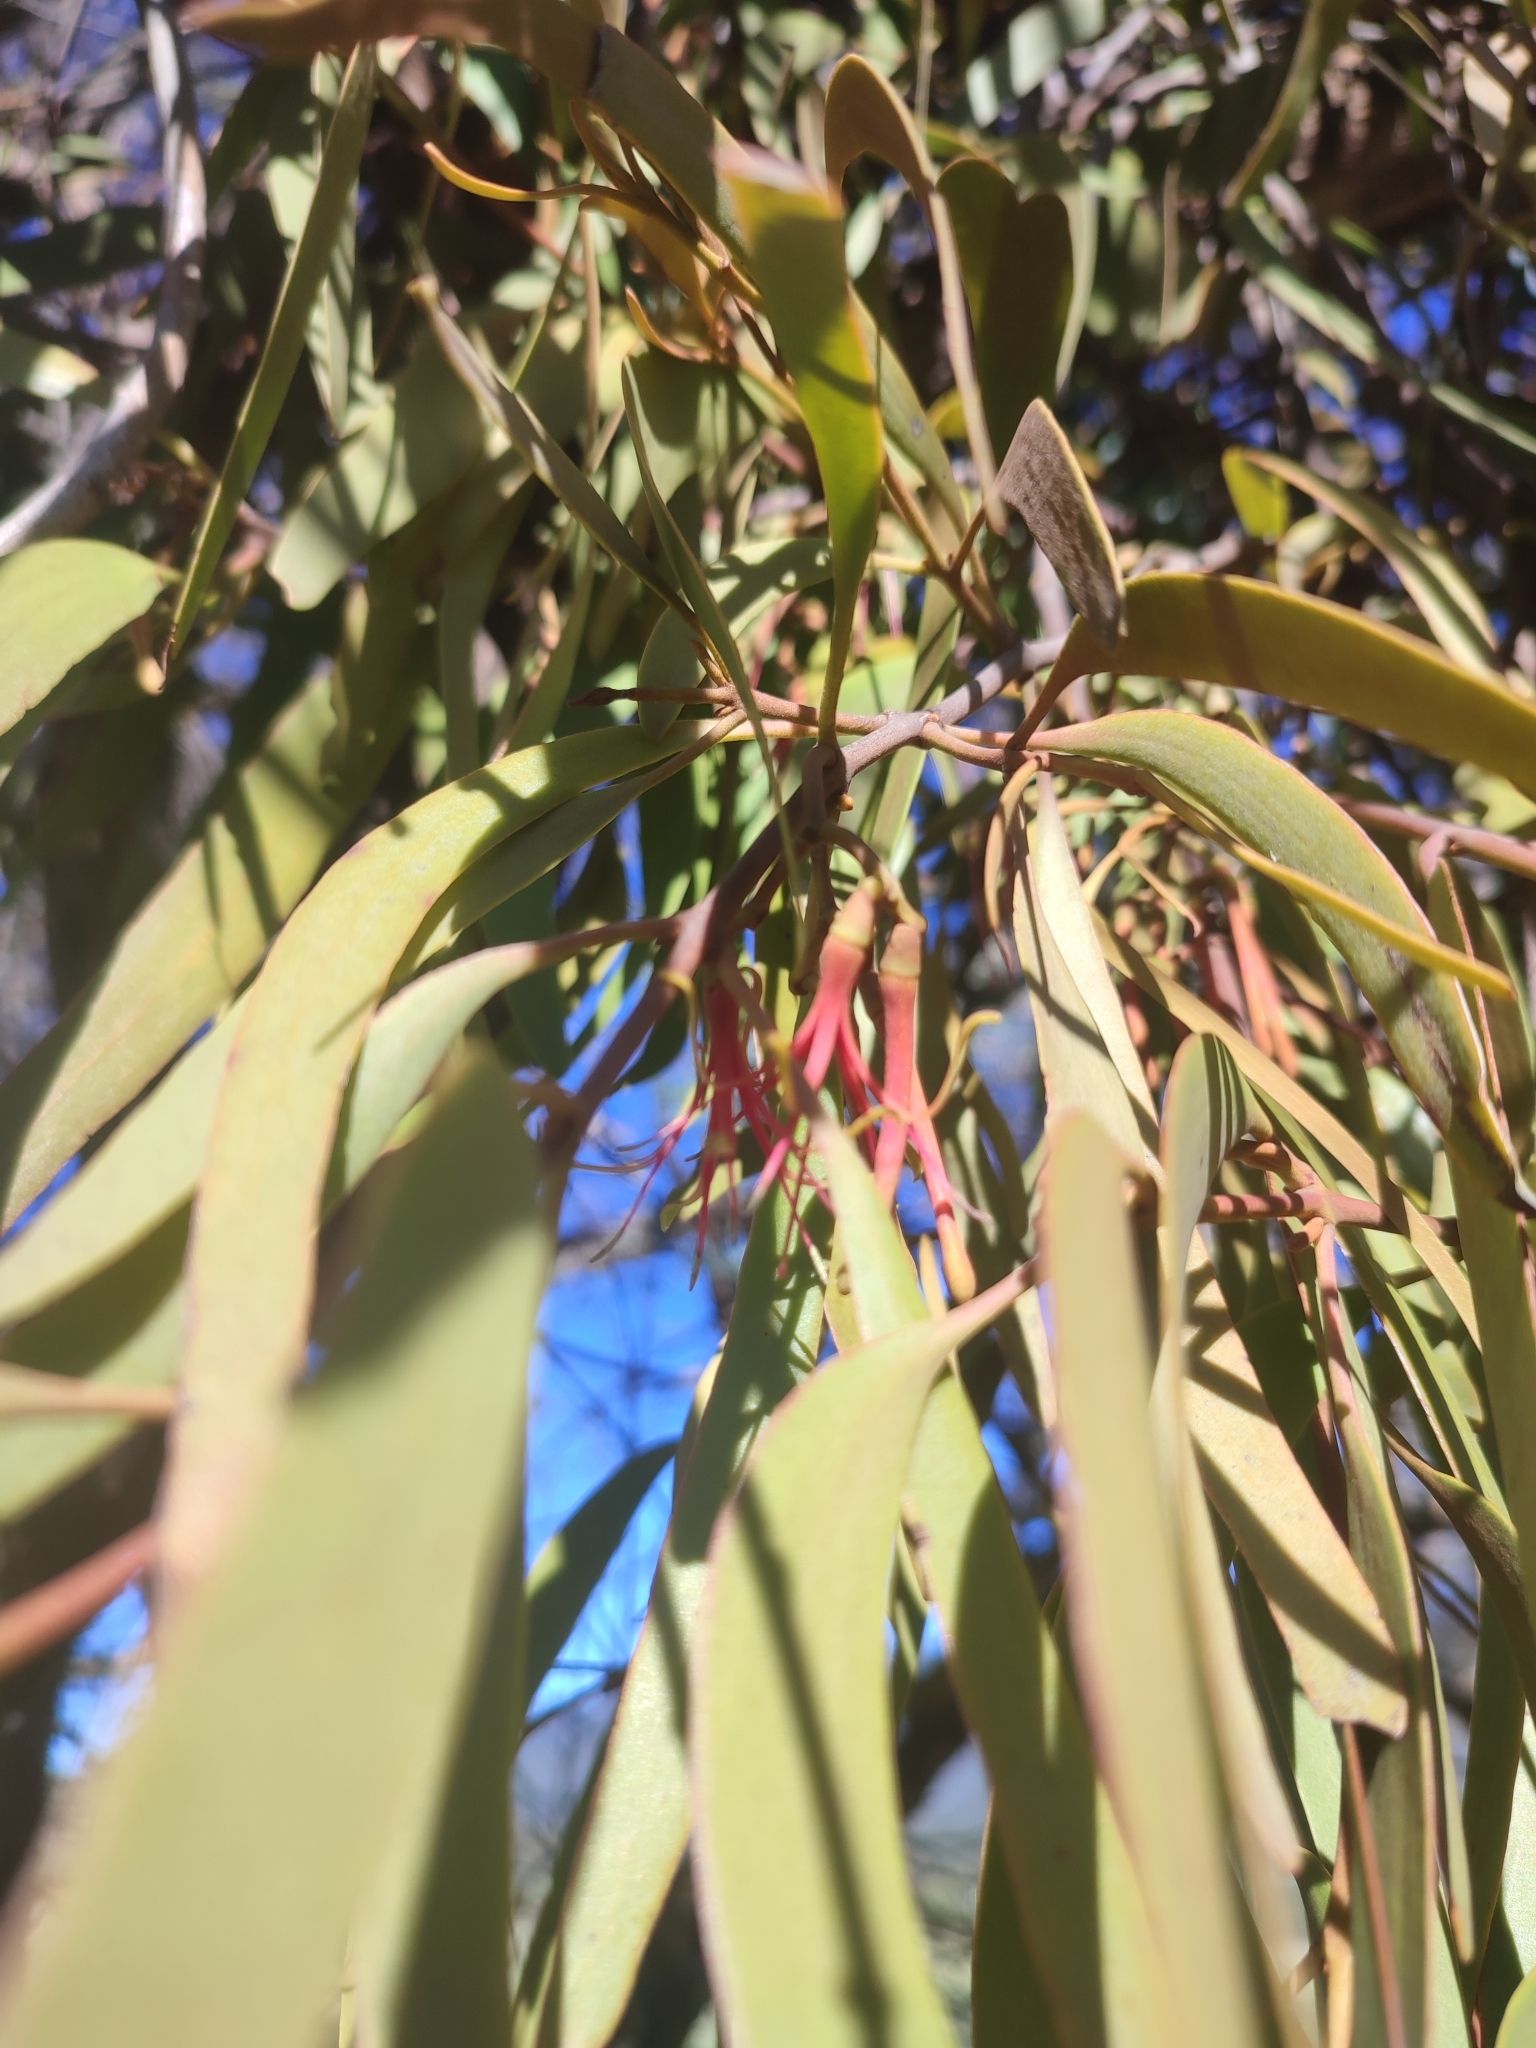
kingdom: Plantae
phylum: Tracheophyta
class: Magnoliopsida
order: Santalales
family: Loranthaceae
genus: Amyema
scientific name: Amyema pendula
